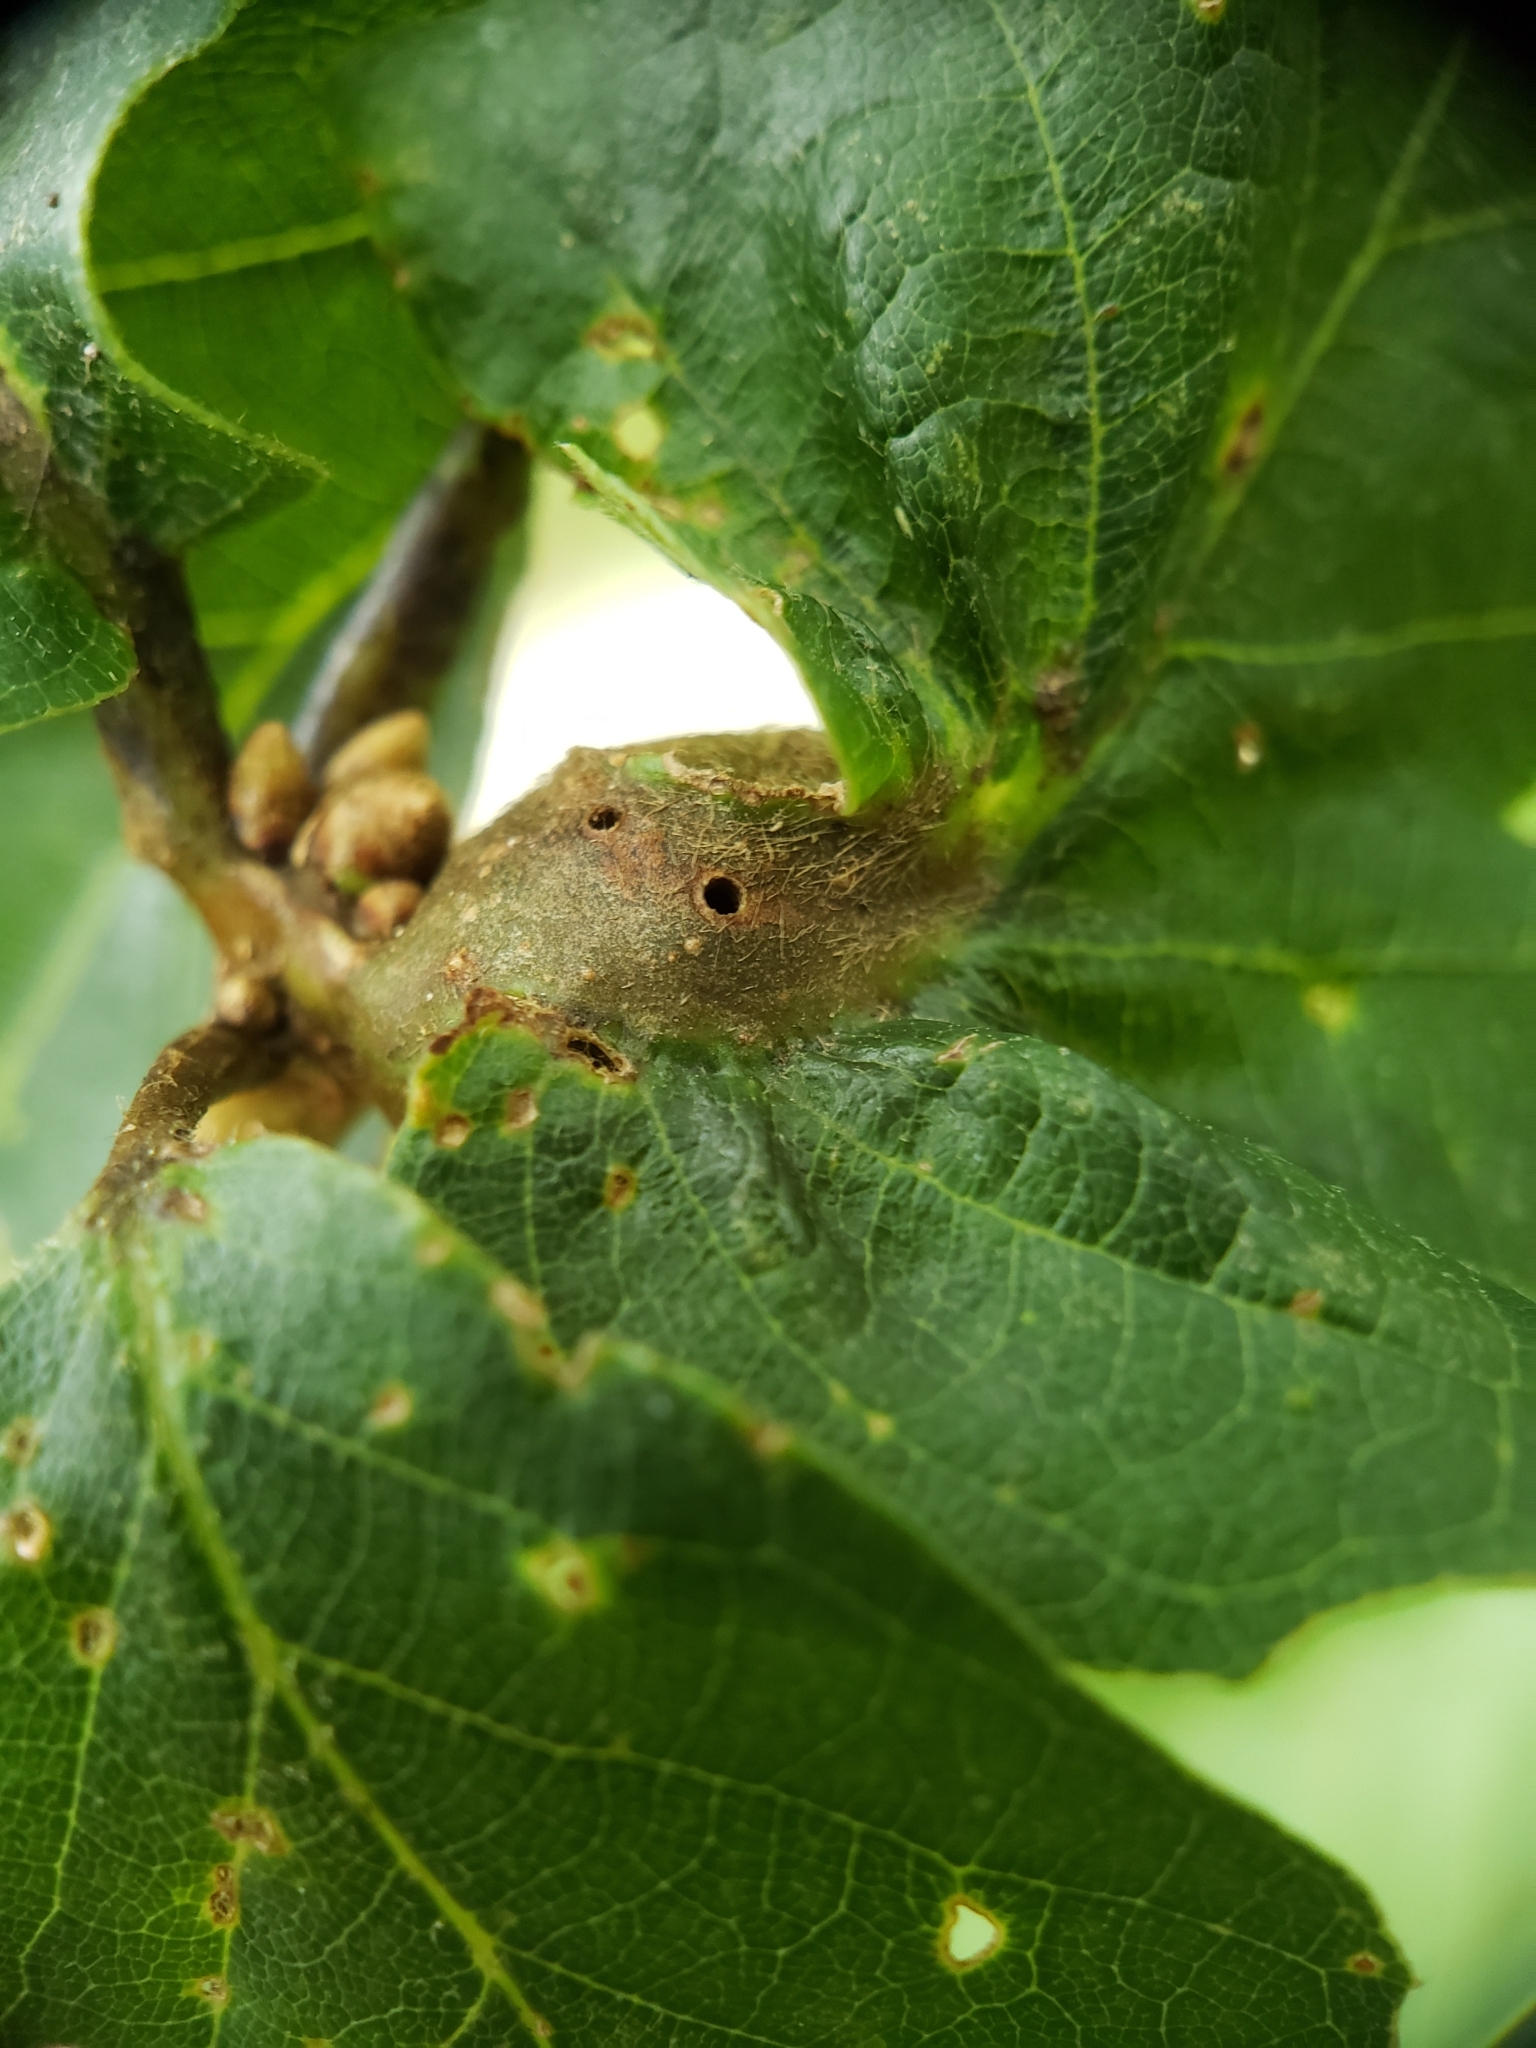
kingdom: Animalia
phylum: Arthropoda
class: Insecta
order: Hymenoptera
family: Cynipidae
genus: Andricus
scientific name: Andricus
